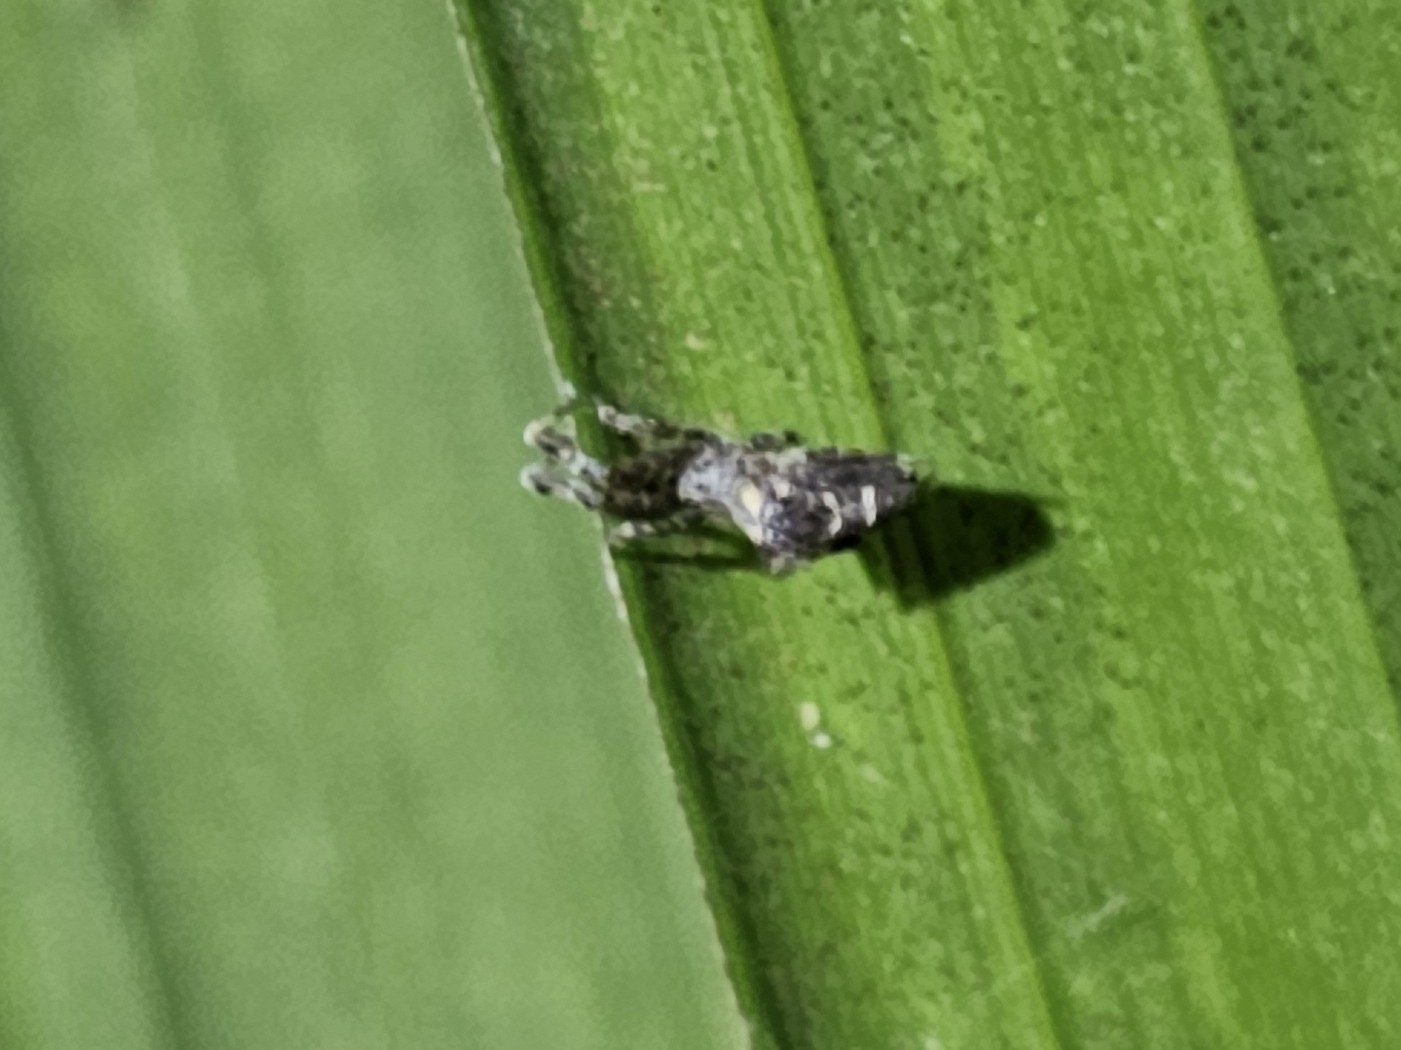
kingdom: Animalia
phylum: Arthropoda
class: Arachnida
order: Araneae
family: Uloboridae
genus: Uloborus
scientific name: Uloborus plumipes
